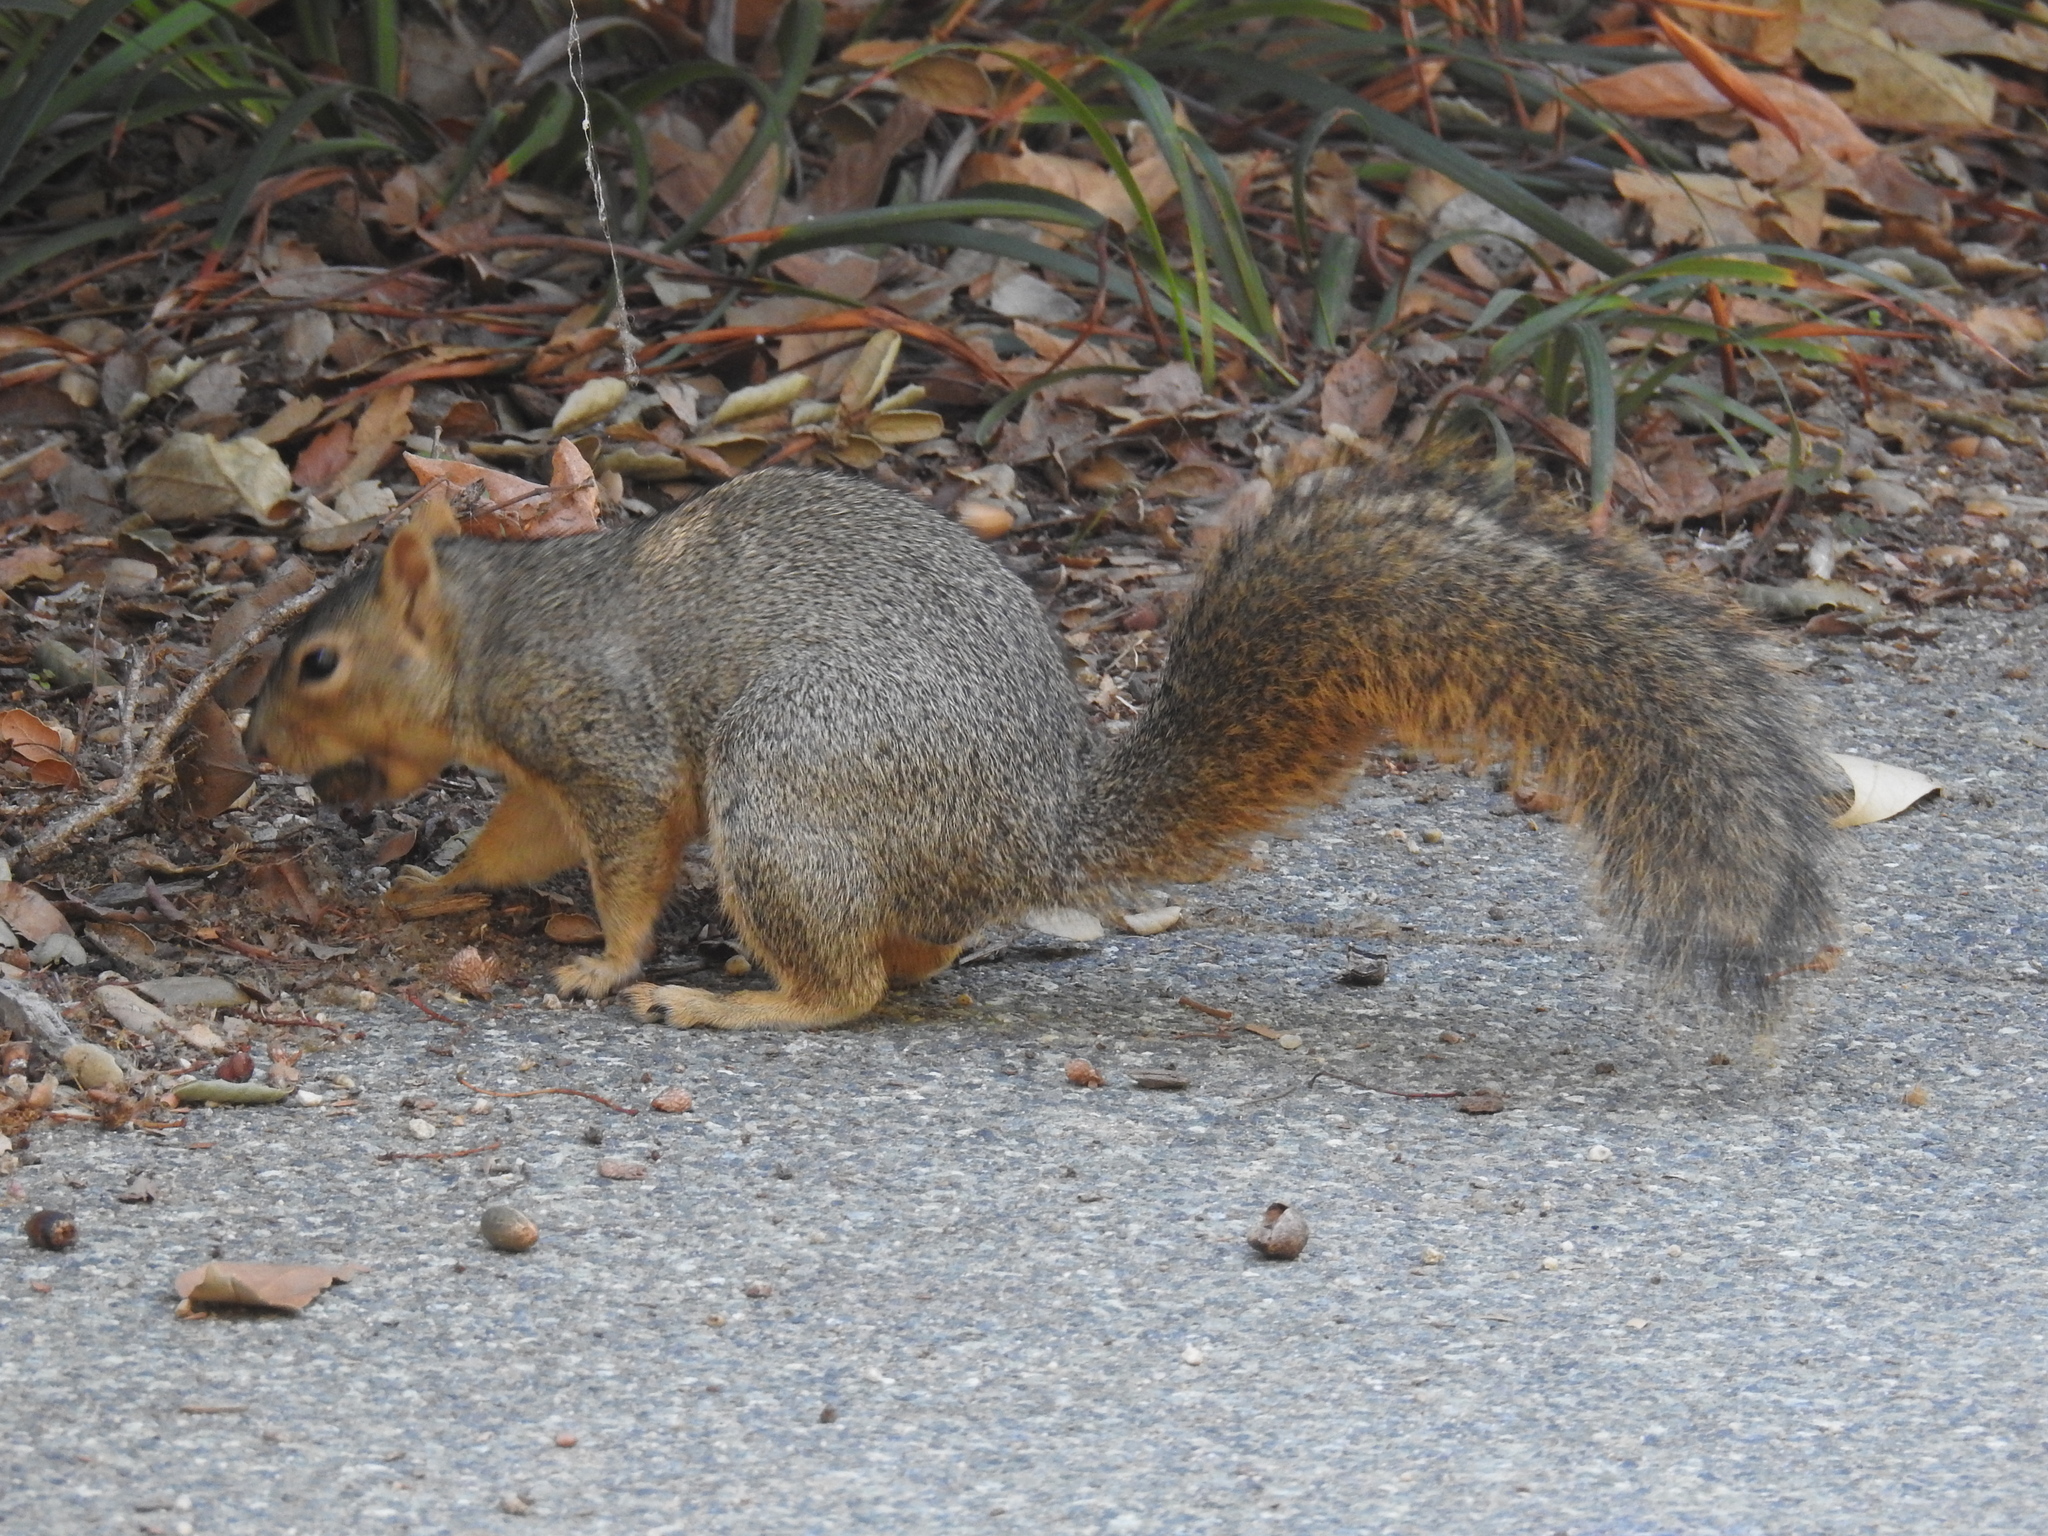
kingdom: Animalia
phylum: Chordata
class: Mammalia
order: Rodentia
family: Sciuridae
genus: Sciurus
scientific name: Sciurus niger
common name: Fox squirrel
